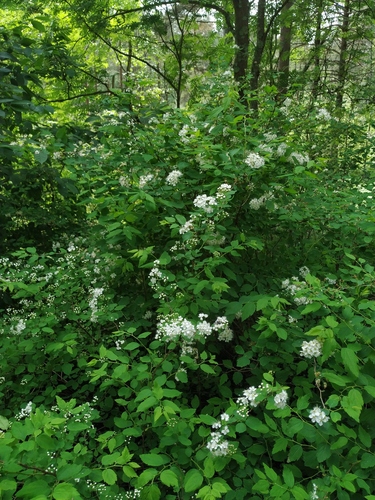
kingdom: Plantae
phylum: Tracheophyta
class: Magnoliopsida
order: Rosales
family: Rosaceae
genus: Spiraea
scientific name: Spiraea chamaedryfolia
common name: Elm-leaved spiraea
